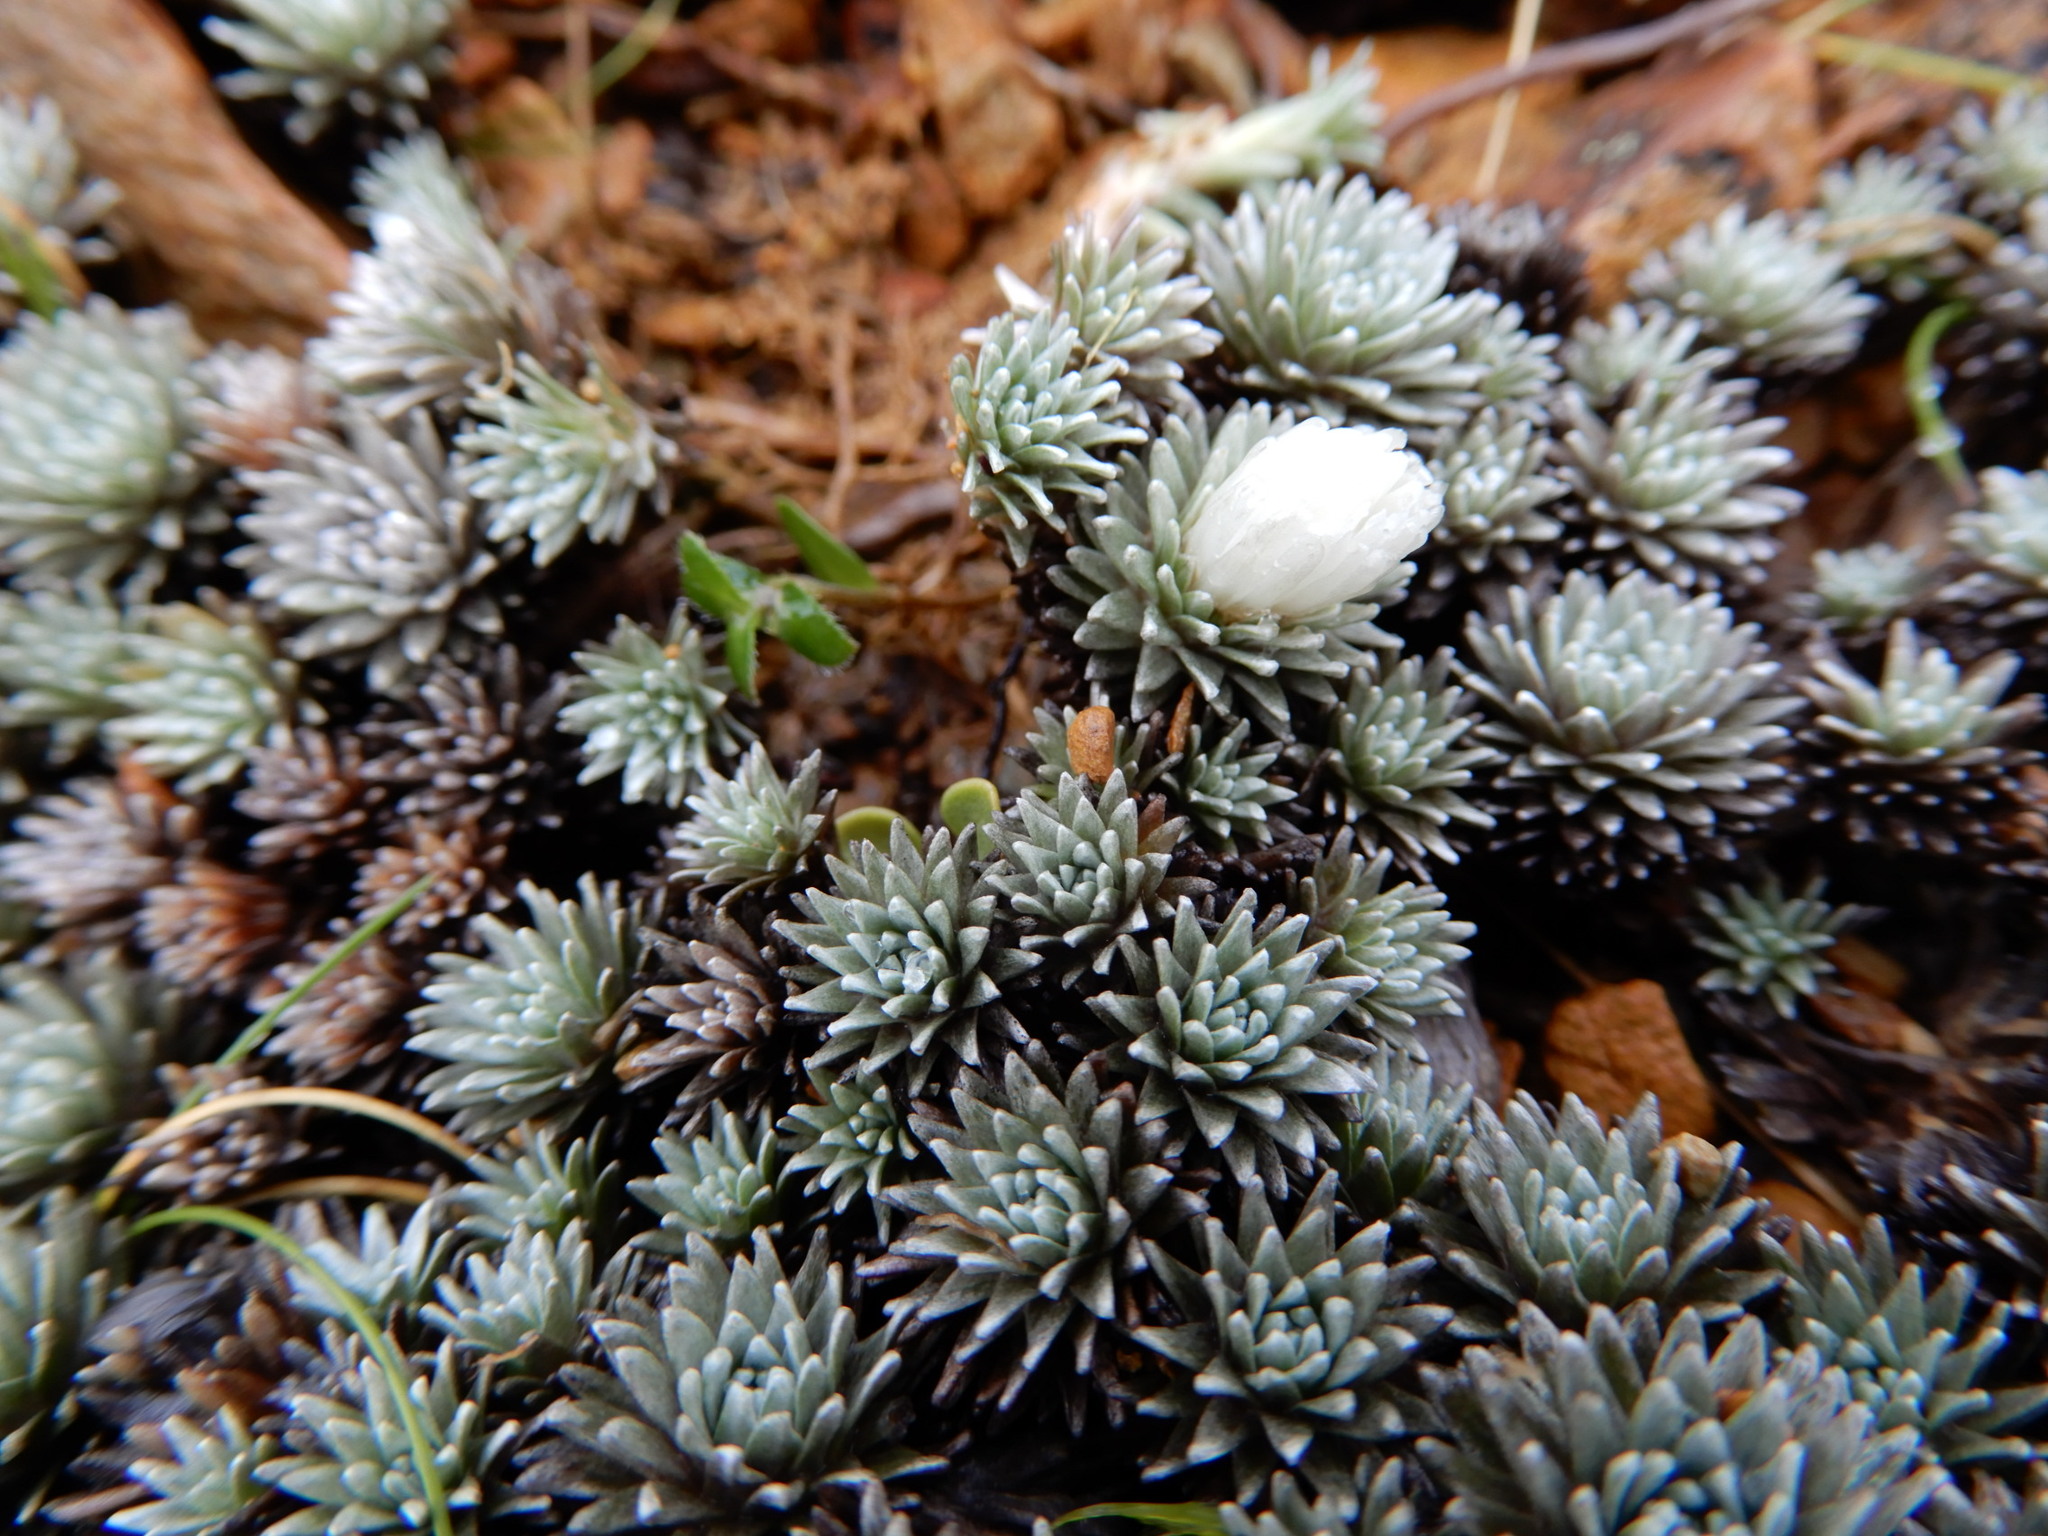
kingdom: Plantae
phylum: Tracheophyta
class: Magnoliopsida
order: Asterales
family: Asteraceae
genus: Raoulia
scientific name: Raoulia grandiflora
